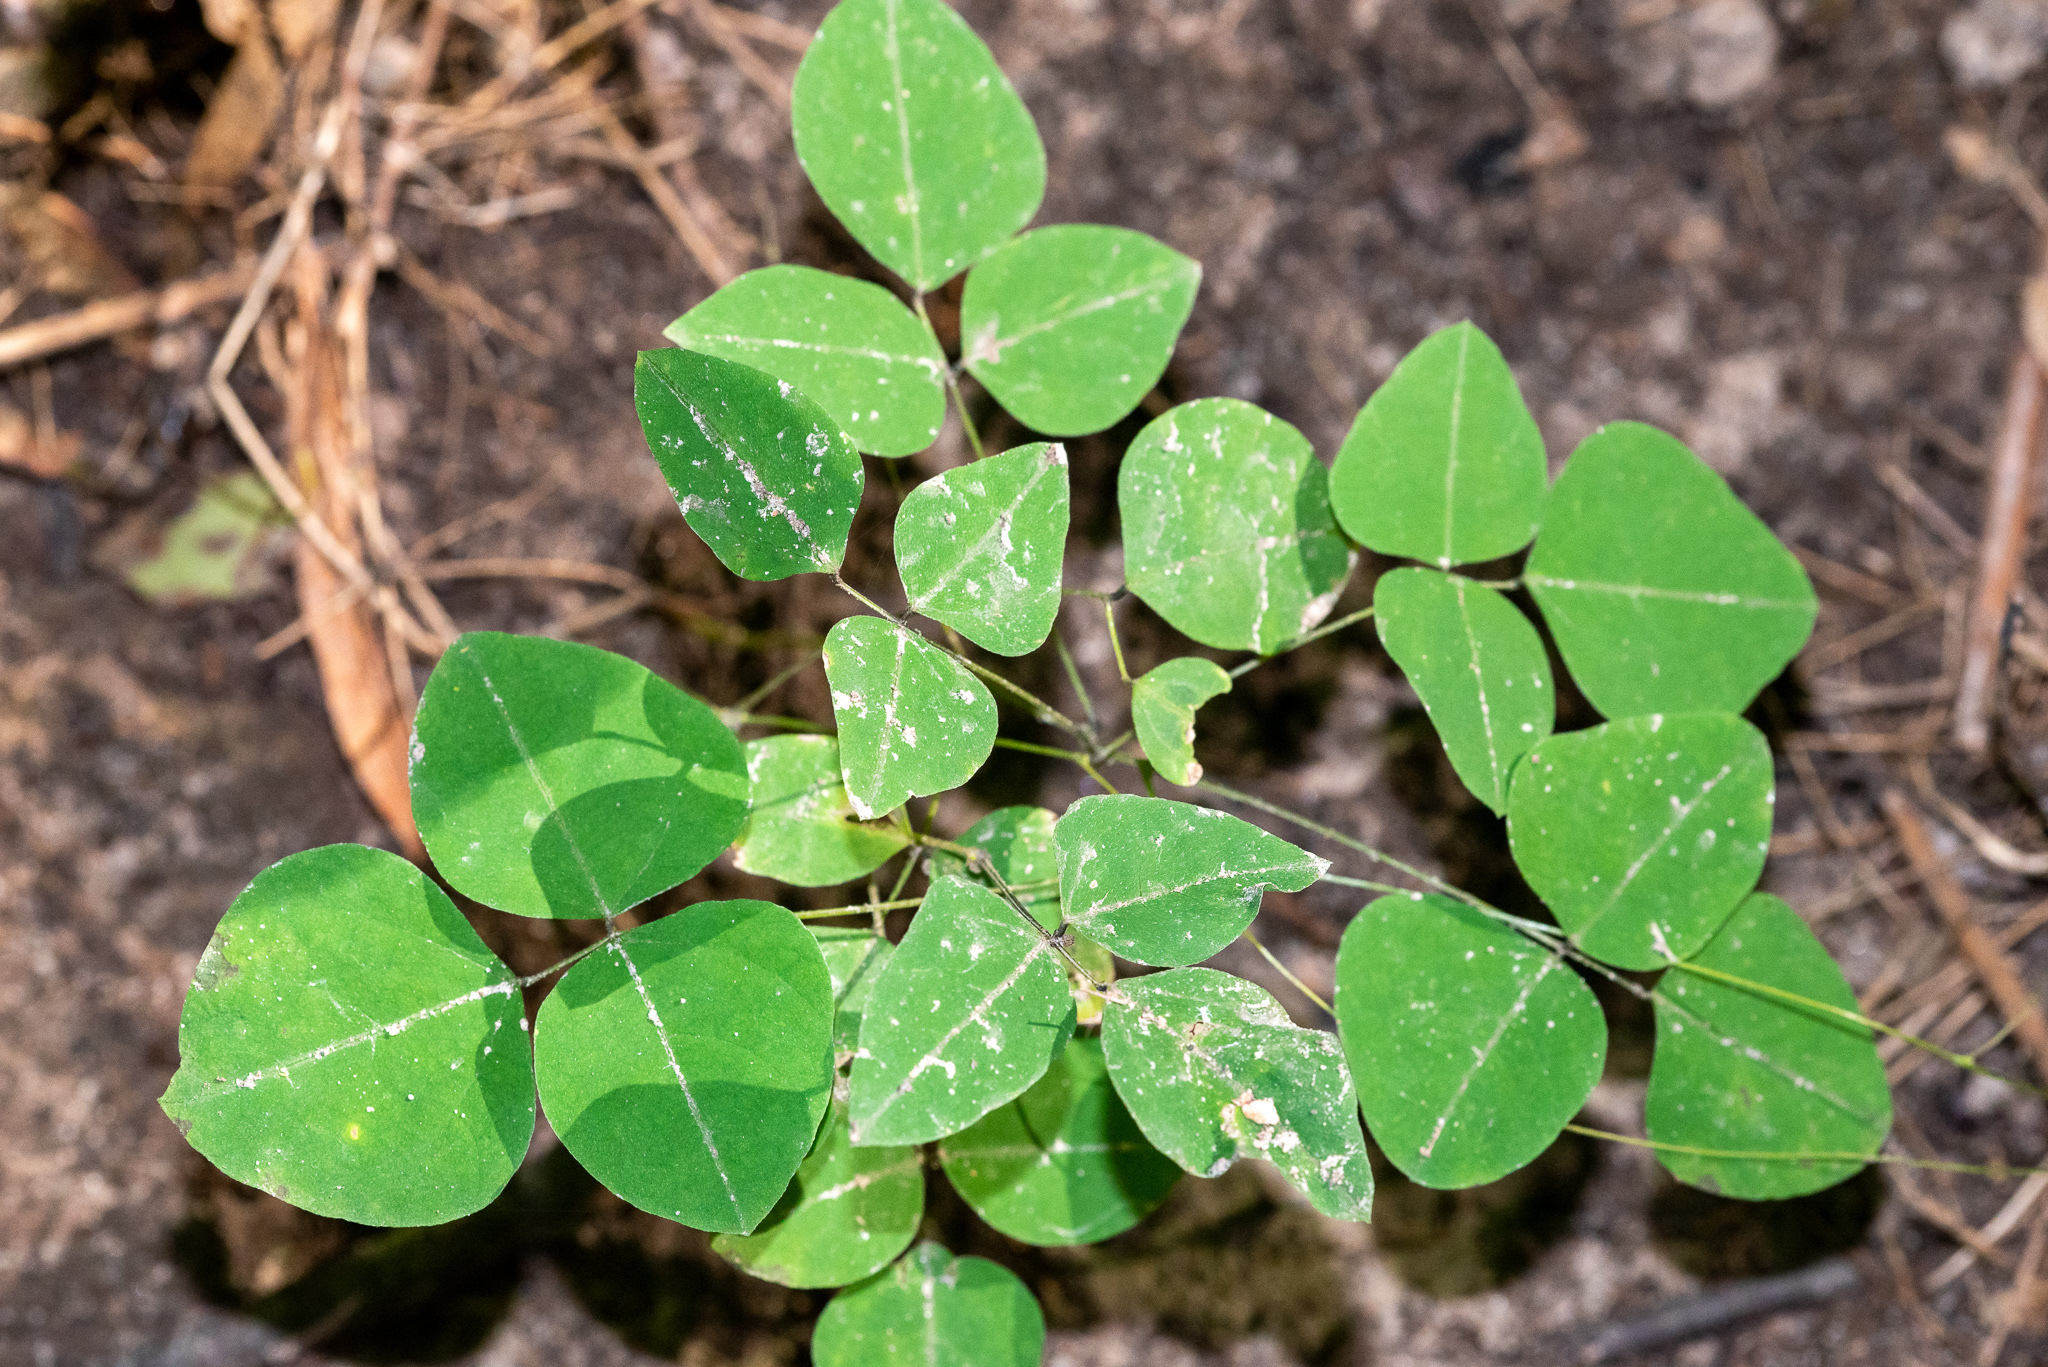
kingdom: Plantae
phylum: Tracheophyta
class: Magnoliopsida
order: Fabales
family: Fabaceae
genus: Amphicarpaea
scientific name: Amphicarpaea bracteata
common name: American hog peanut
